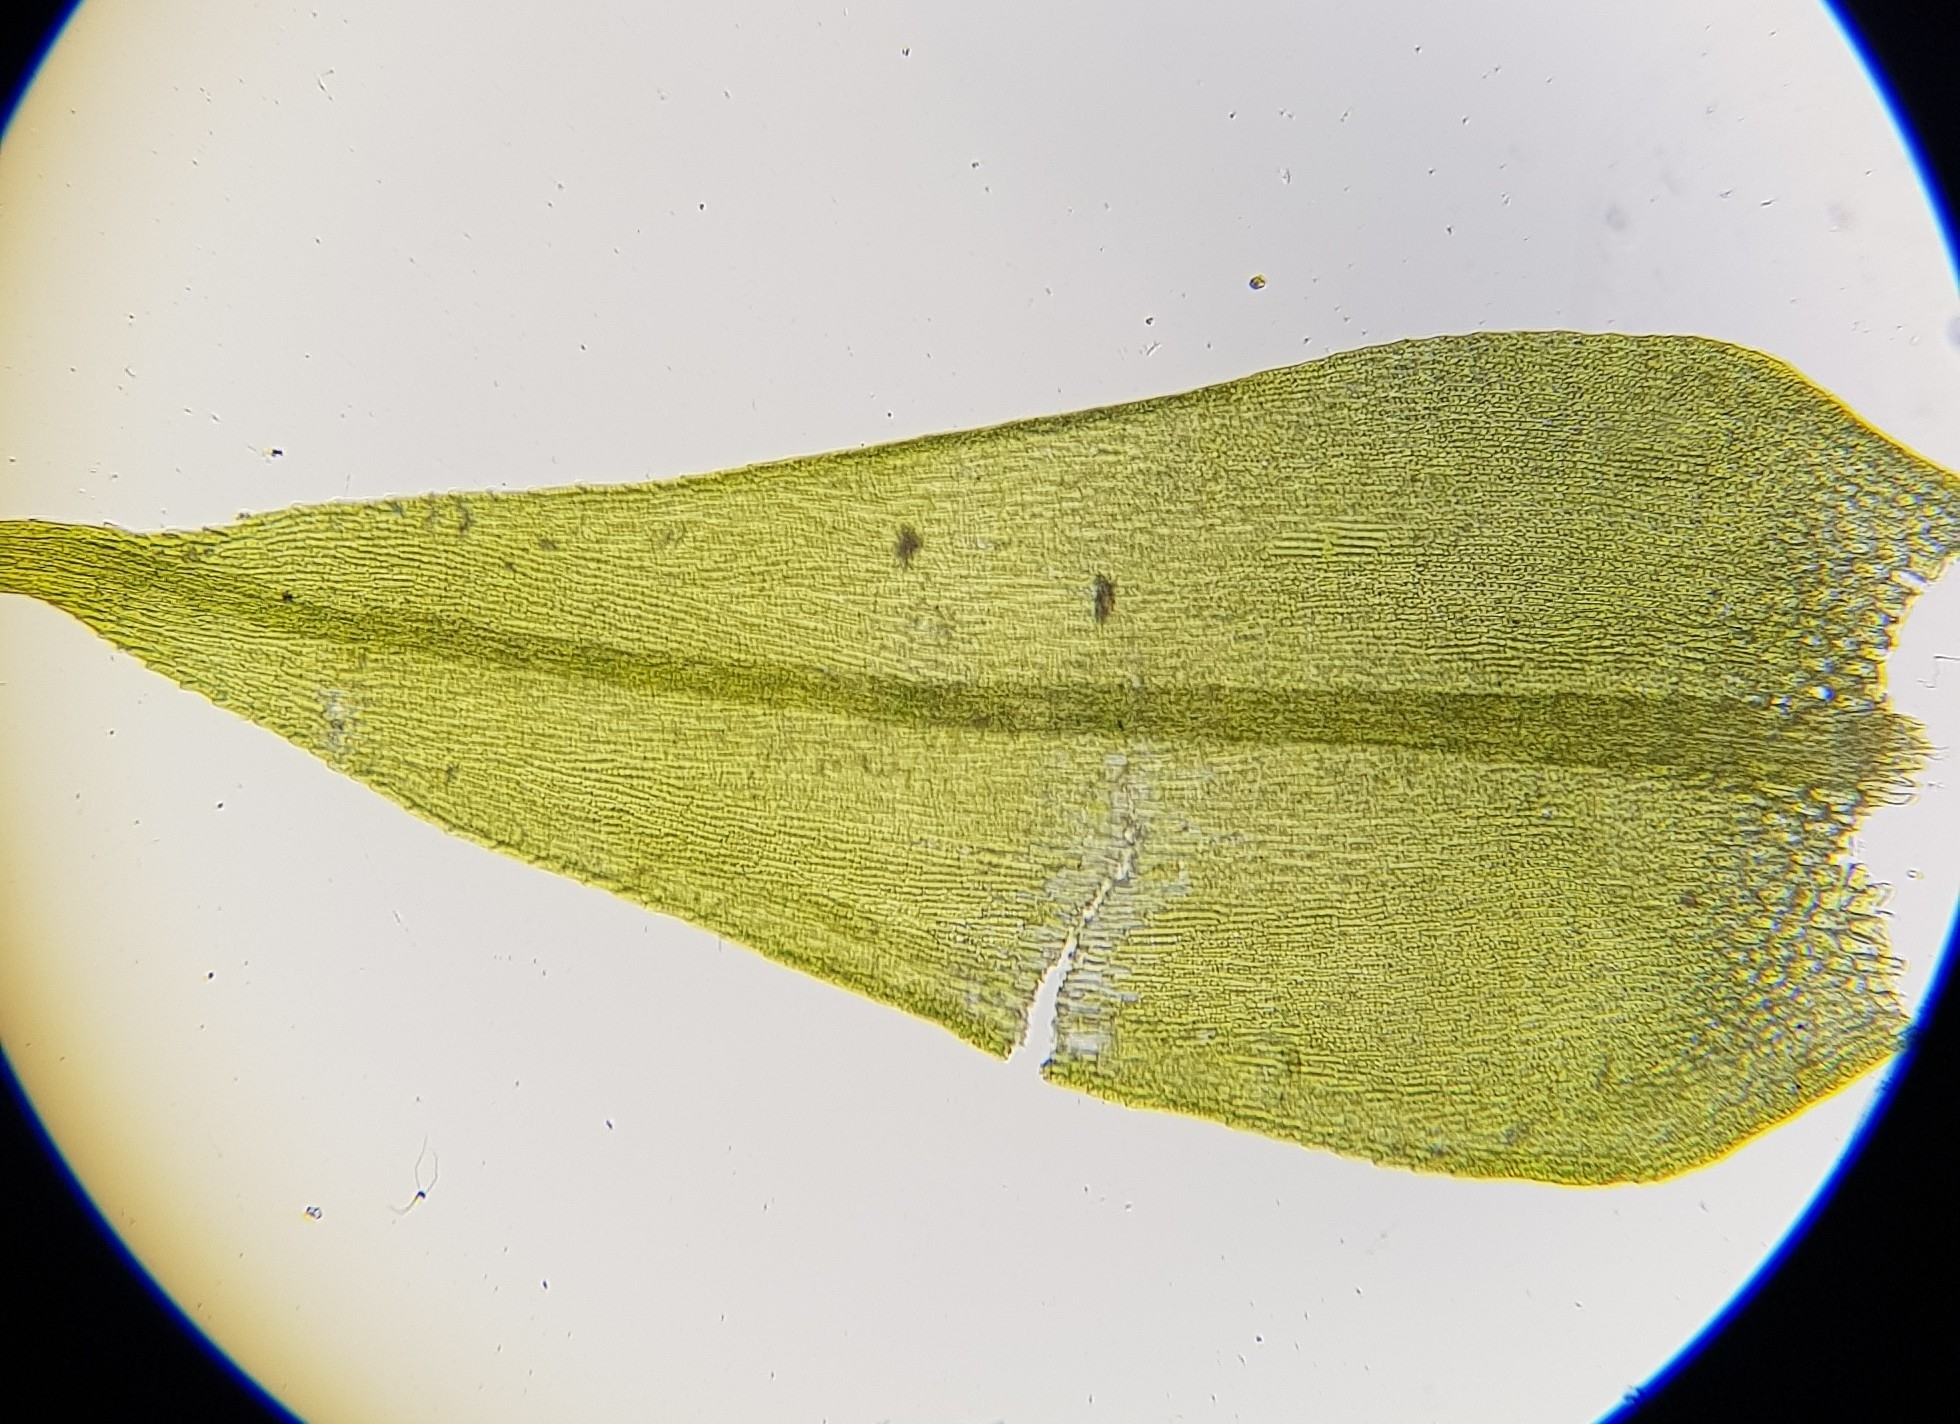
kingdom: Plantae
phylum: Bryophyta
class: Bryopsida
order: Hypnales
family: Brachytheciaceae
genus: Sciuro-hypnum
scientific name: Sciuro-hypnum populeum
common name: Matted feather-moss
